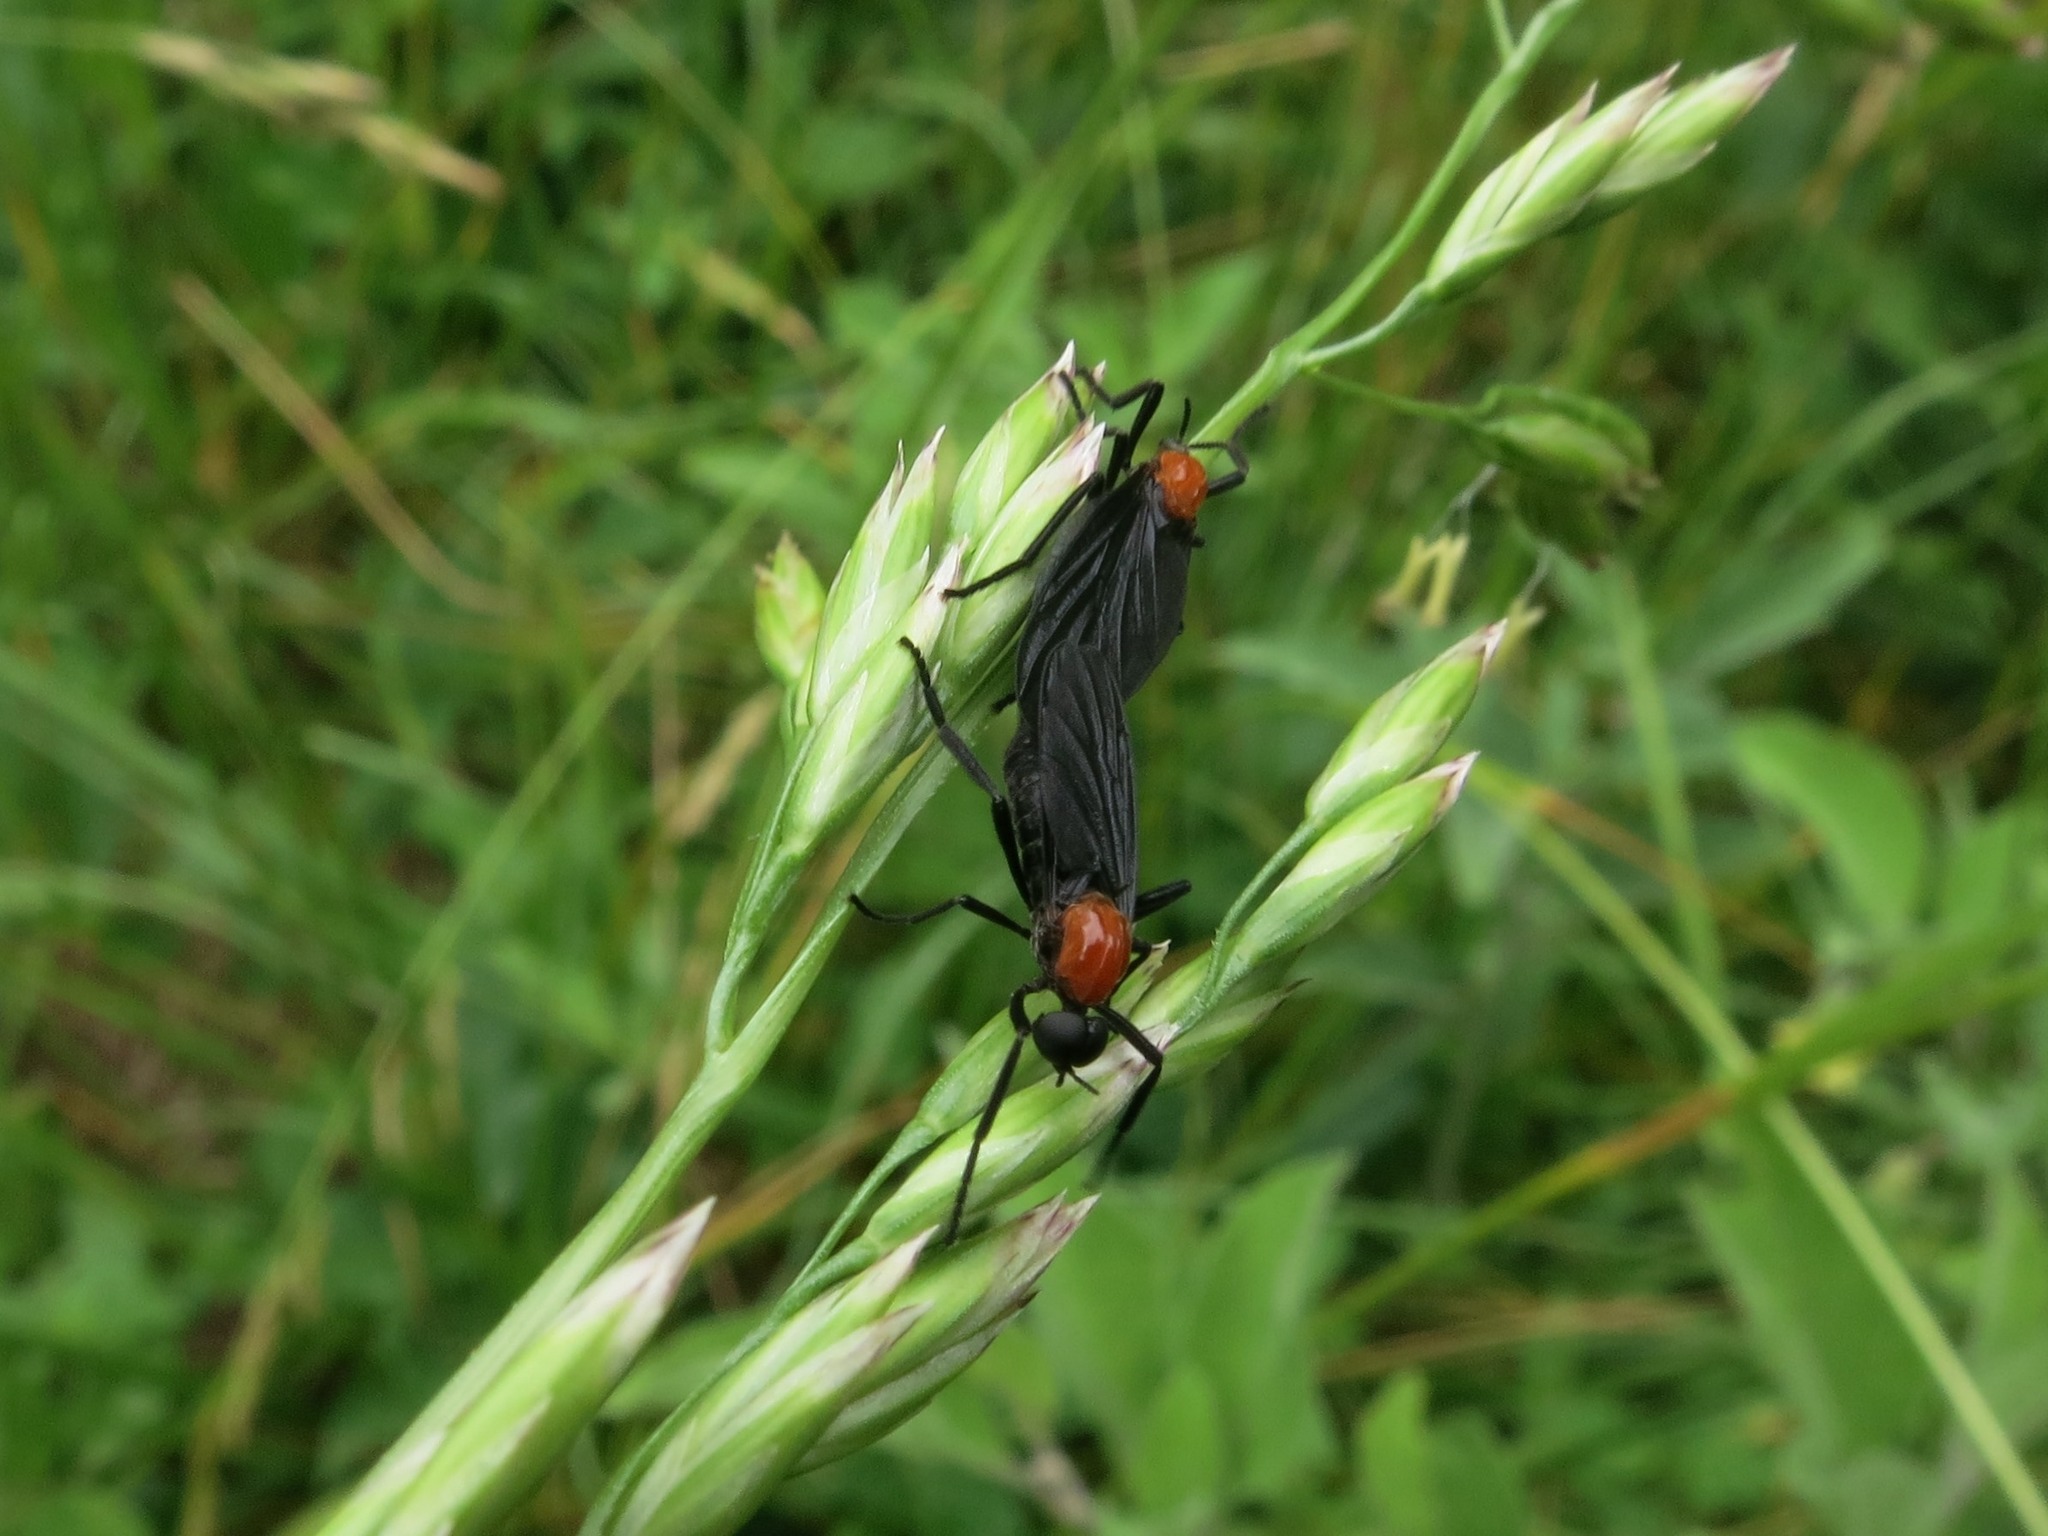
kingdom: Animalia
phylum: Arthropoda
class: Insecta
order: Diptera
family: Bibionidae
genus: Plecia
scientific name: Plecia nearctica
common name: March fly
